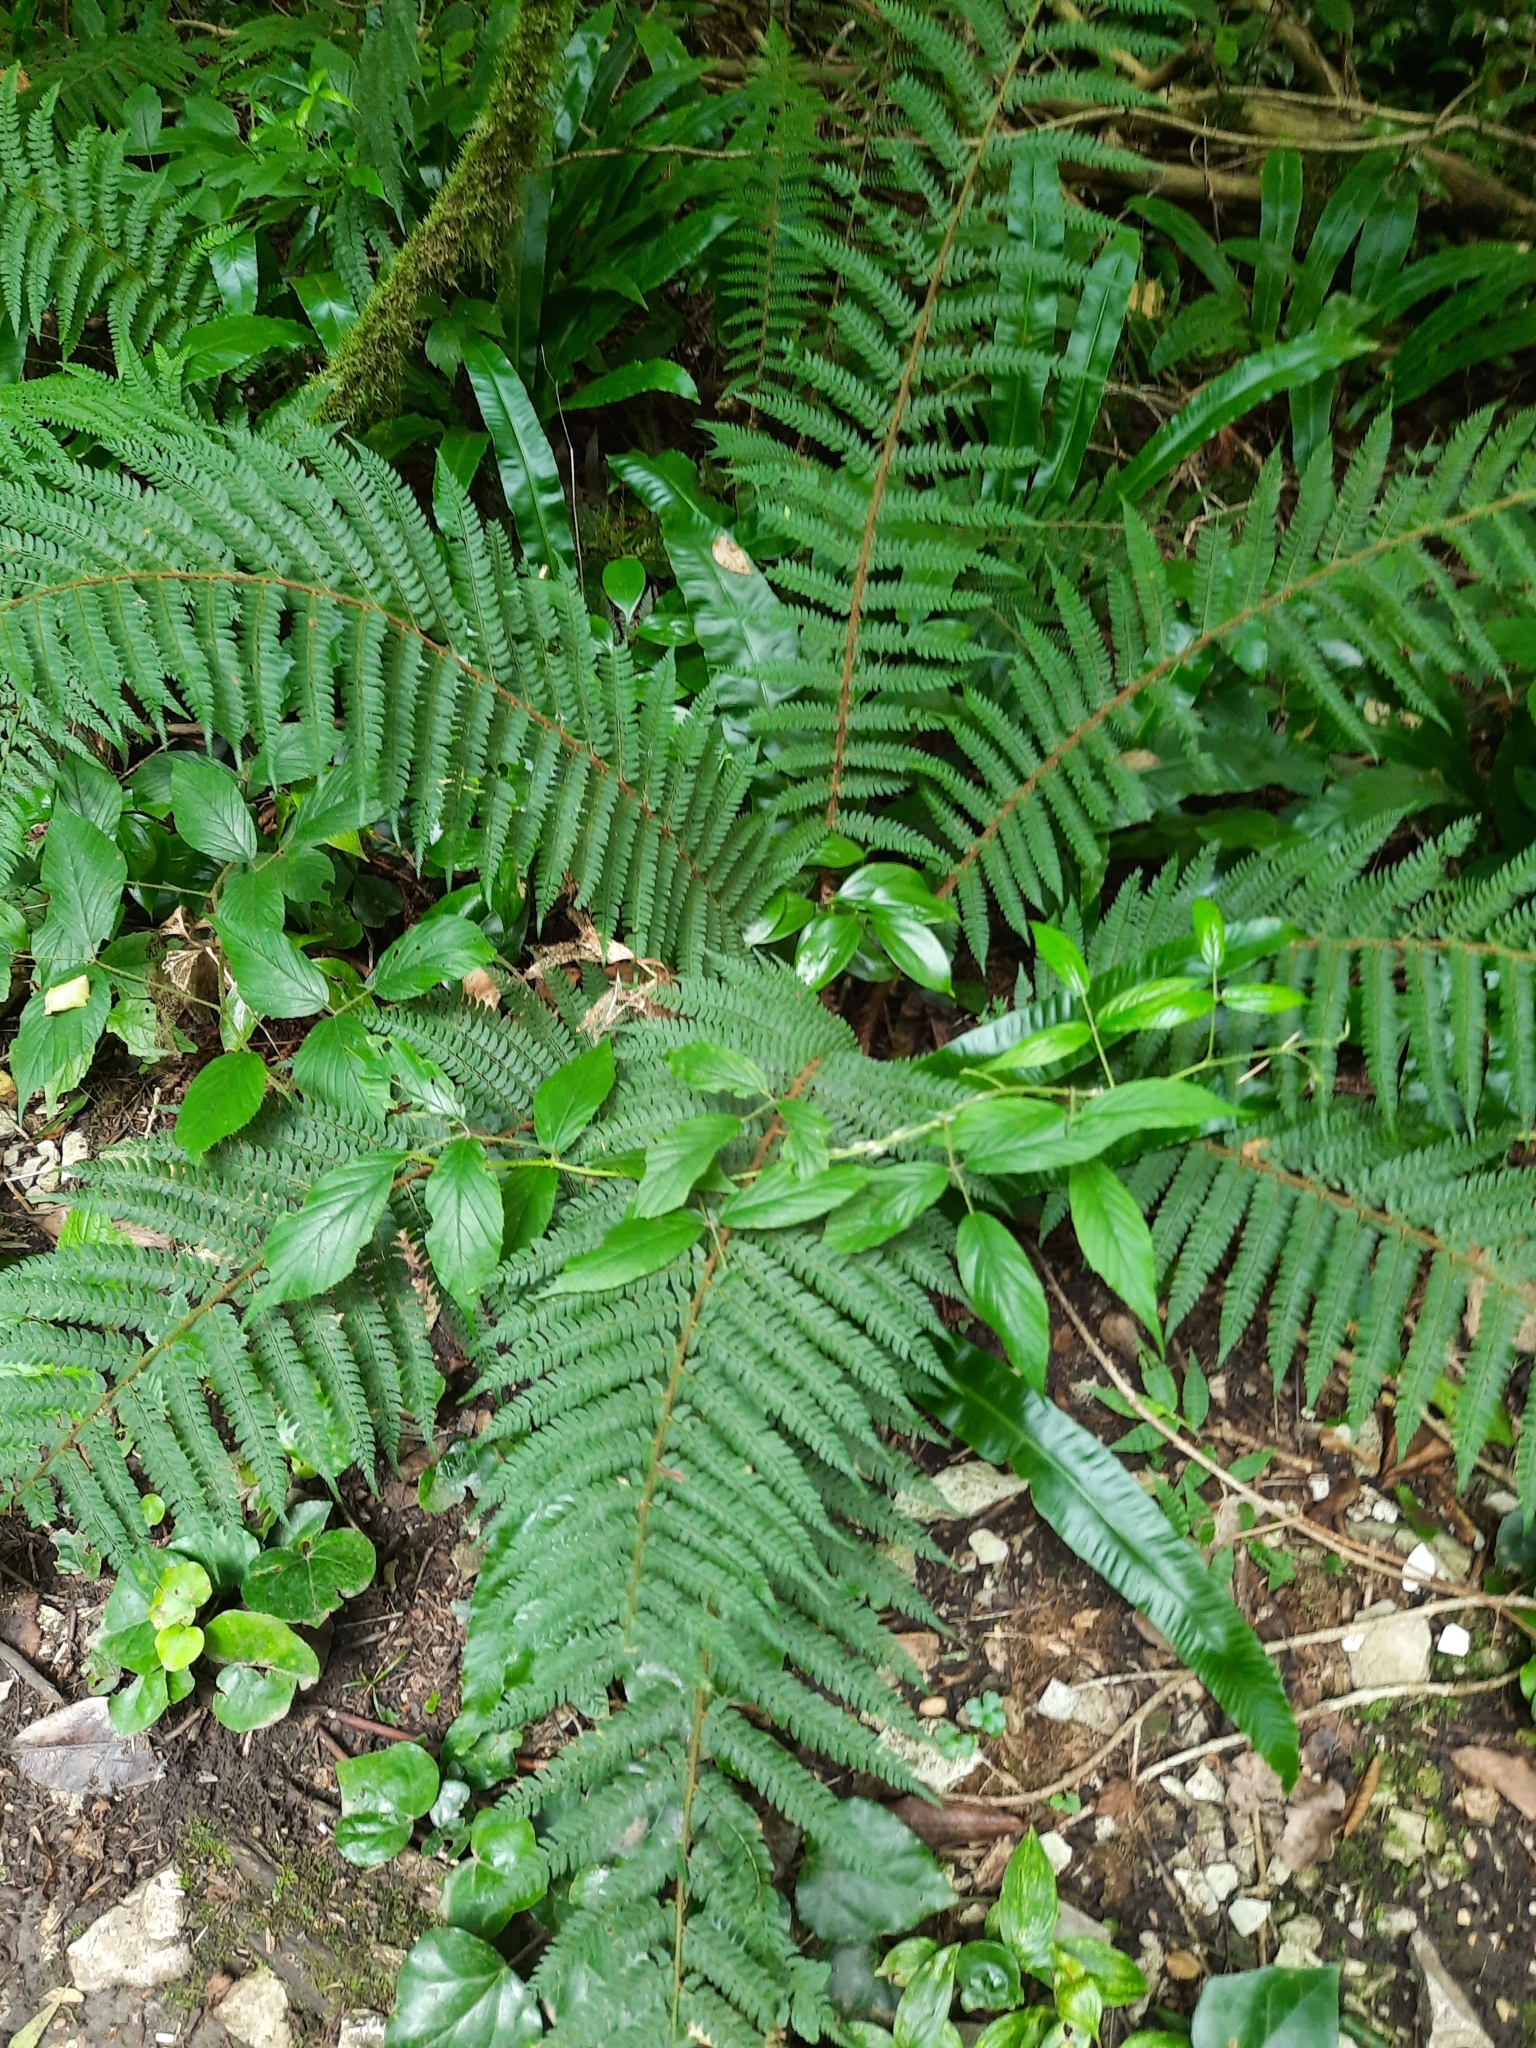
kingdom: Plantae
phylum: Tracheophyta
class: Polypodiopsida
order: Polypodiales
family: Dryopteridaceae
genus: Polystichum
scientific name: Polystichum setiferum
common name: Soft shield-fern
